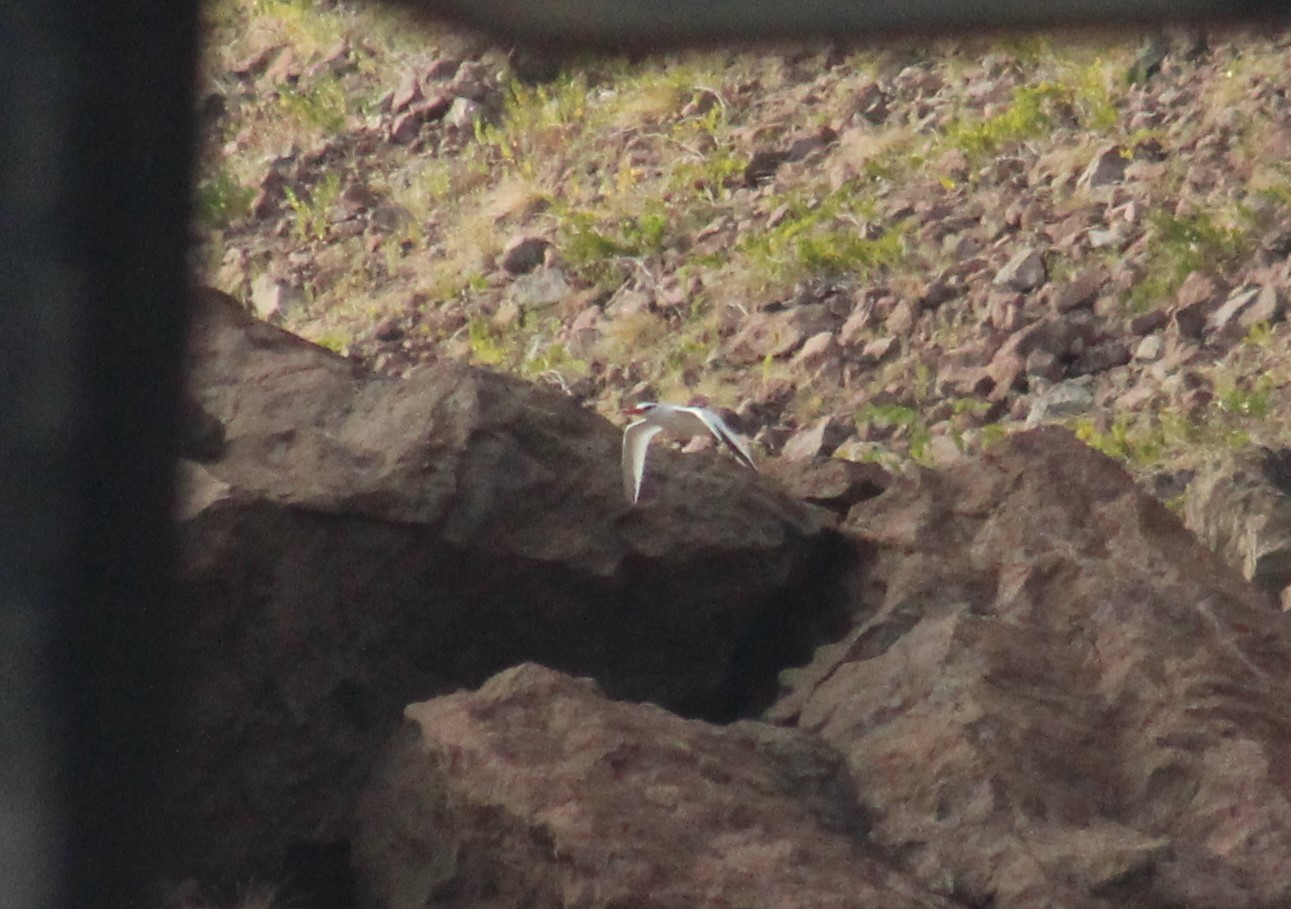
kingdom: Animalia
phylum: Chordata
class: Aves
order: Phaethontiformes
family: Phaethontidae
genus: Phaethon
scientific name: Phaethon aethereus
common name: Red-billed tropicbird
